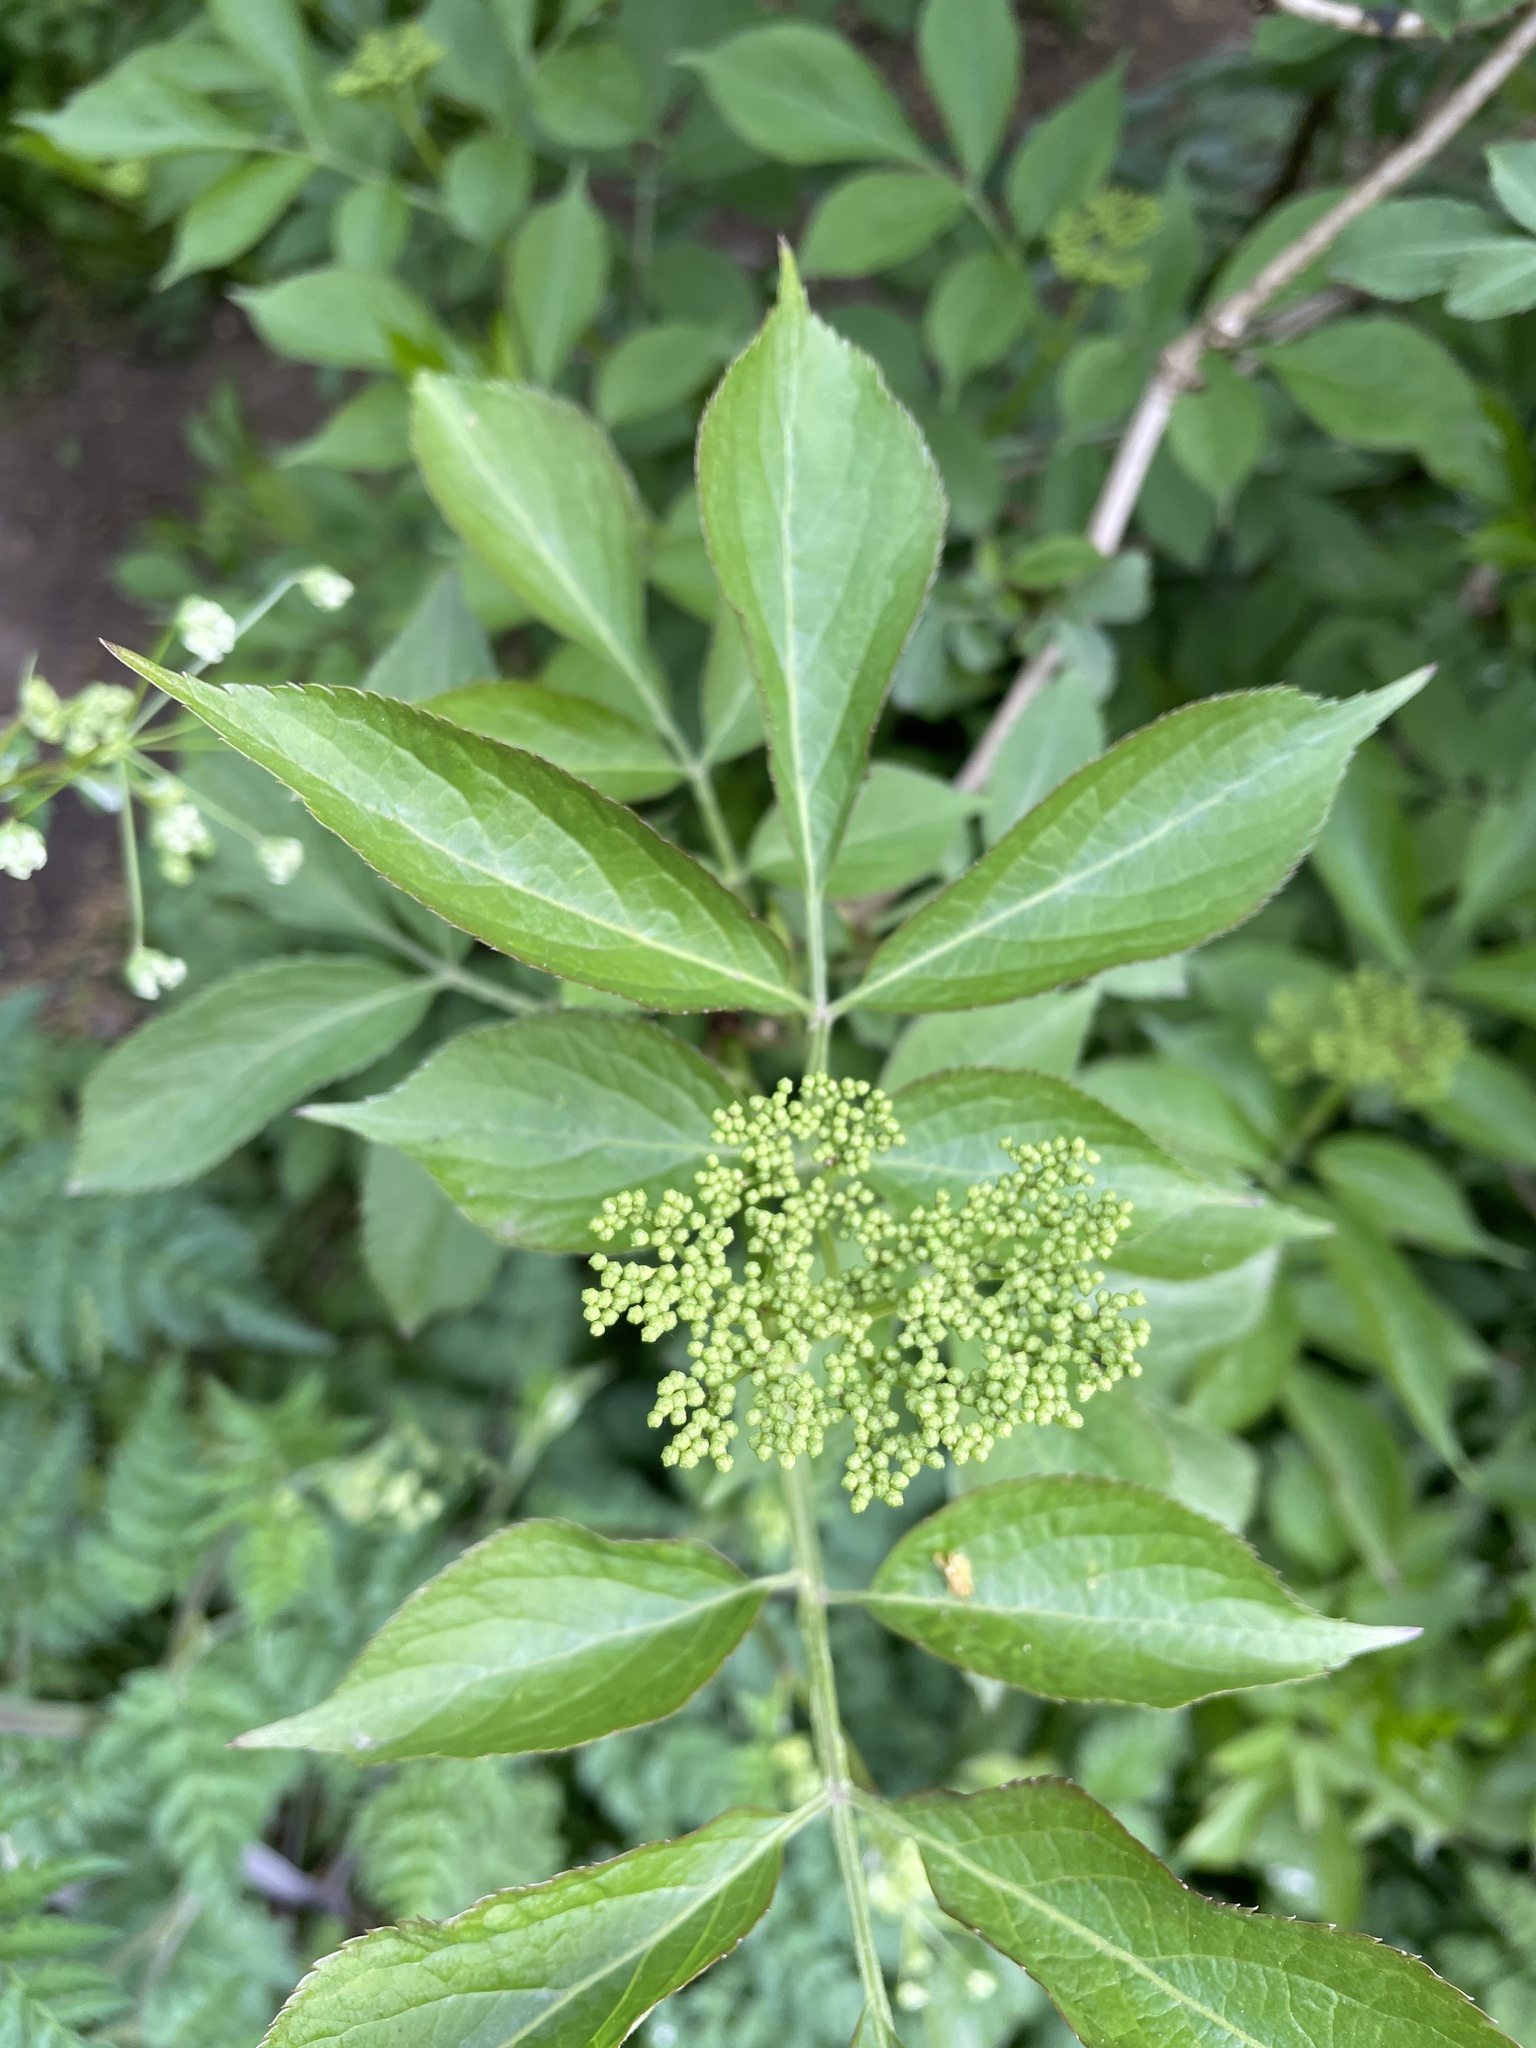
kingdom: Plantae
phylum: Tracheophyta
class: Magnoliopsida
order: Dipsacales
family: Viburnaceae
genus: Sambucus
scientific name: Sambucus nigra
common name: Elder
